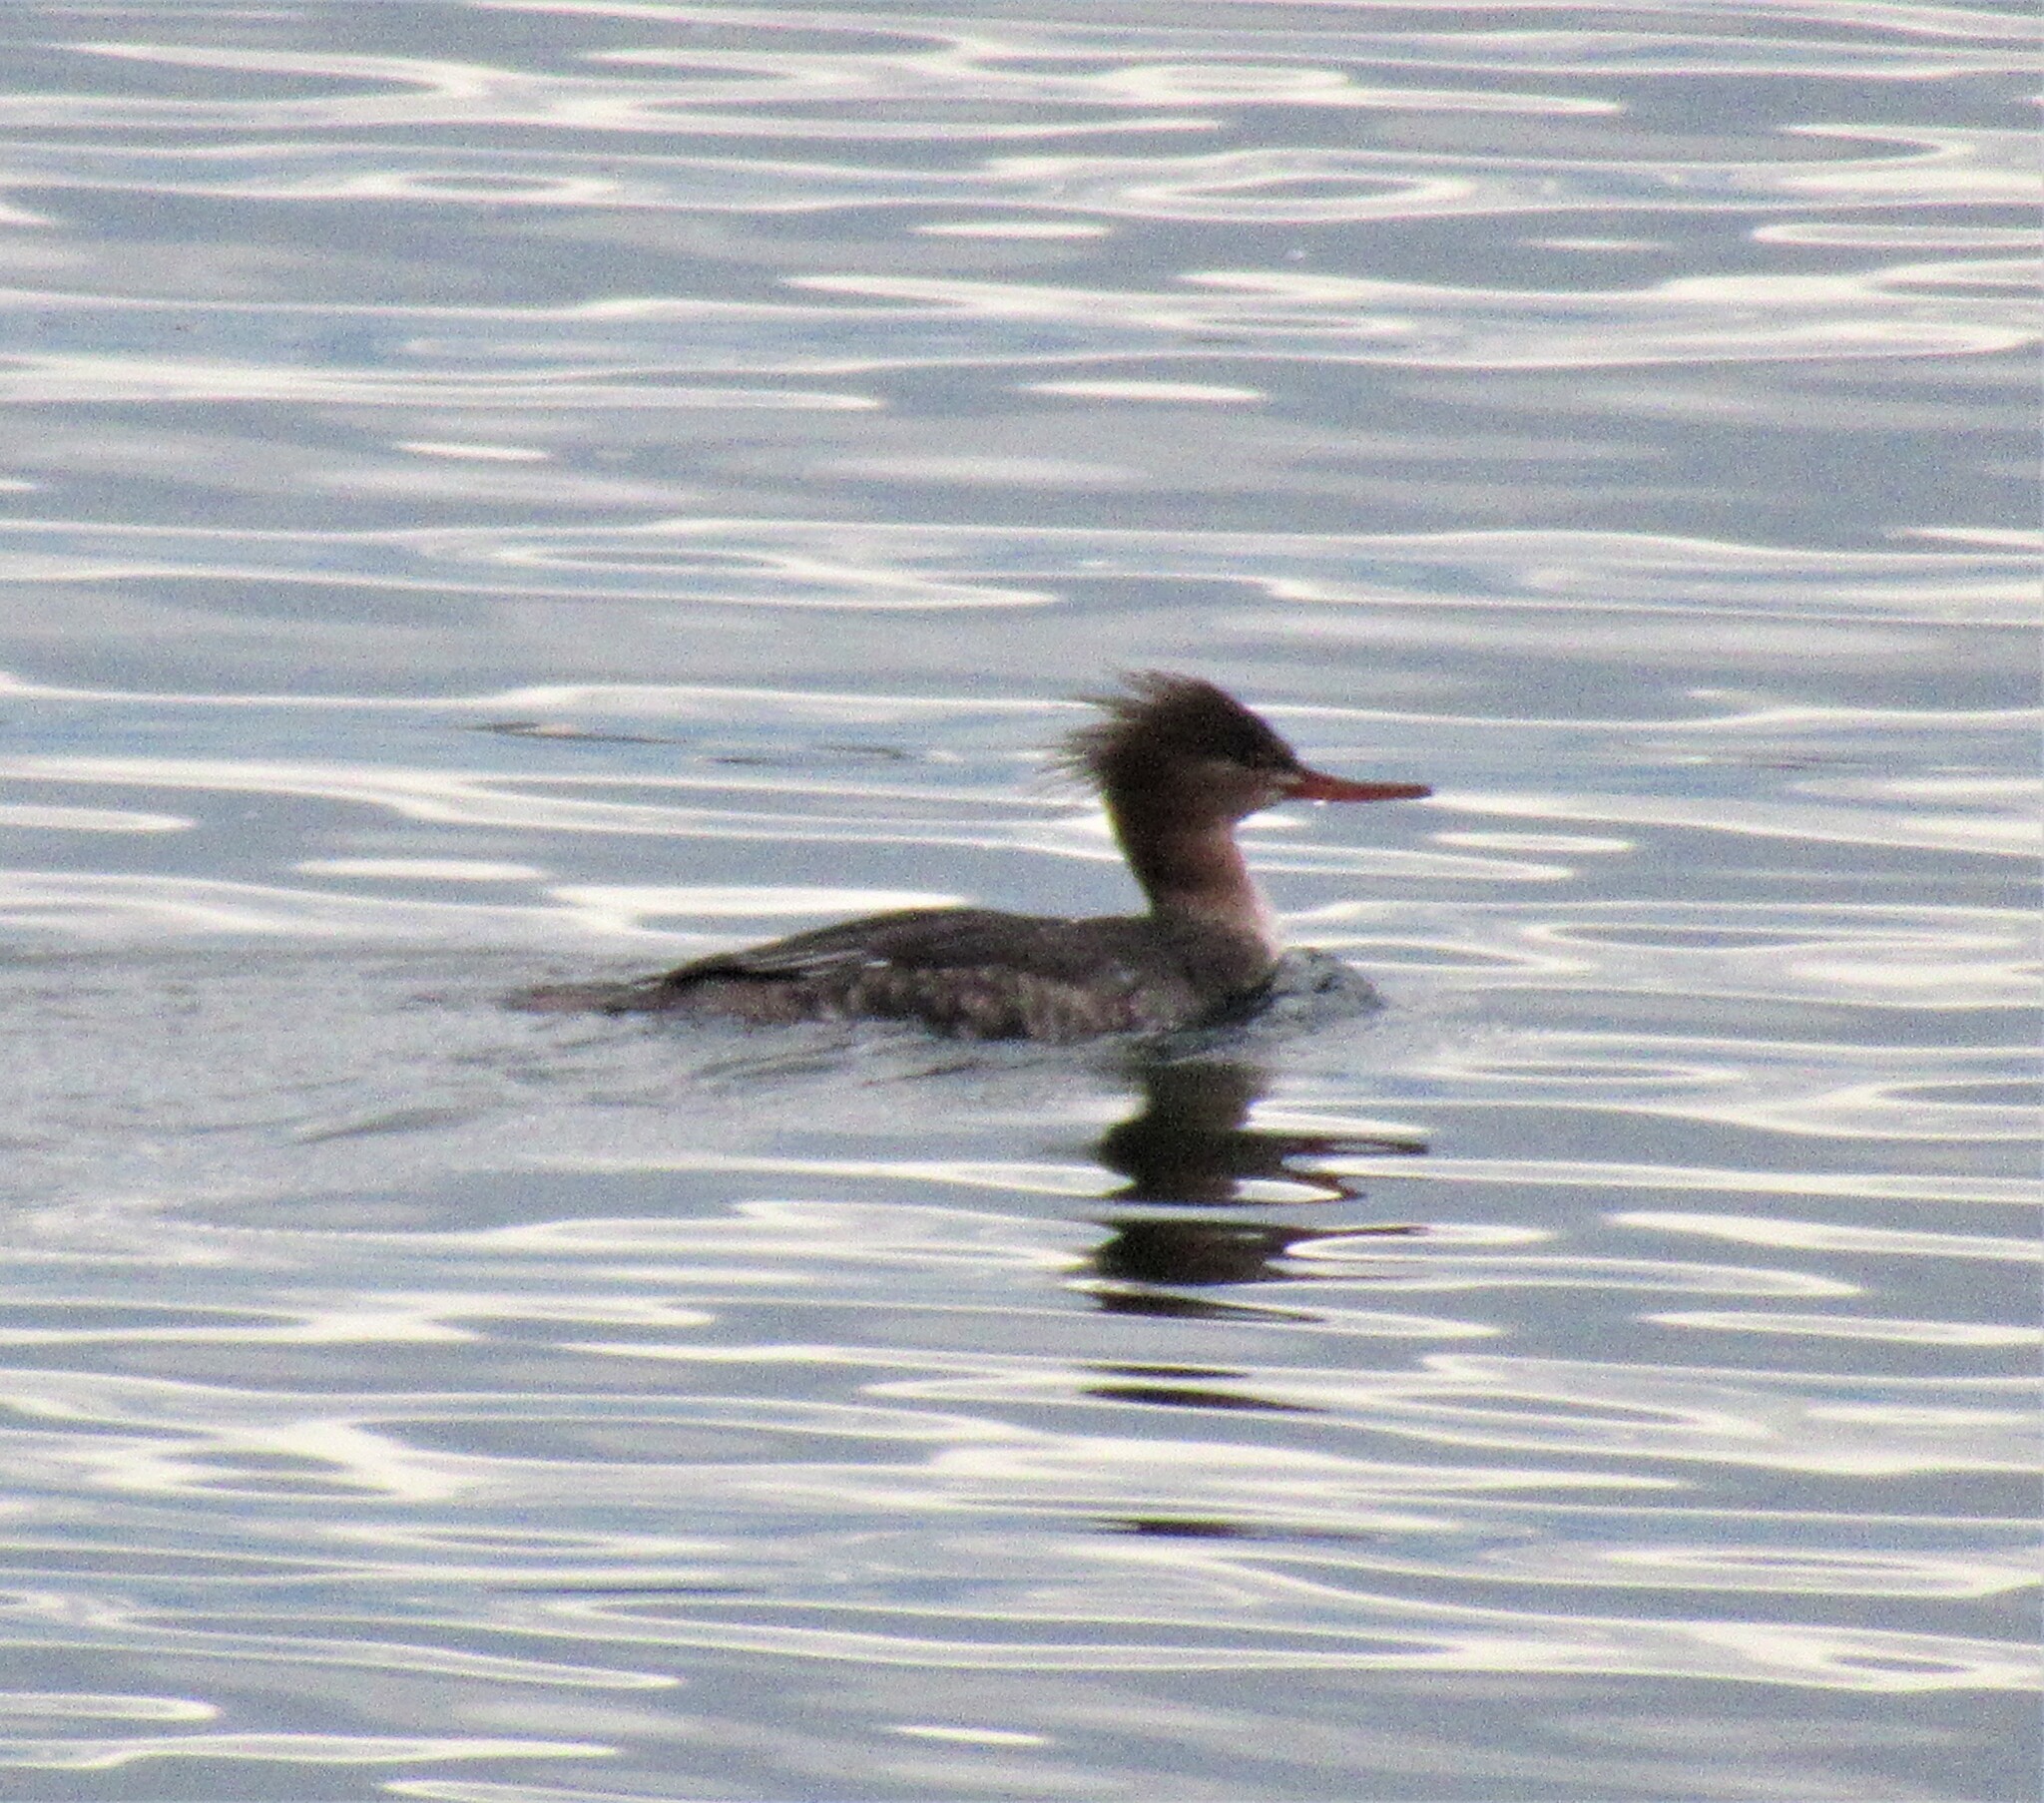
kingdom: Animalia
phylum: Chordata
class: Aves
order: Anseriformes
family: Anatidae
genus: Mergus
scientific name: Mergus serrator
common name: Red-breasted merganser
